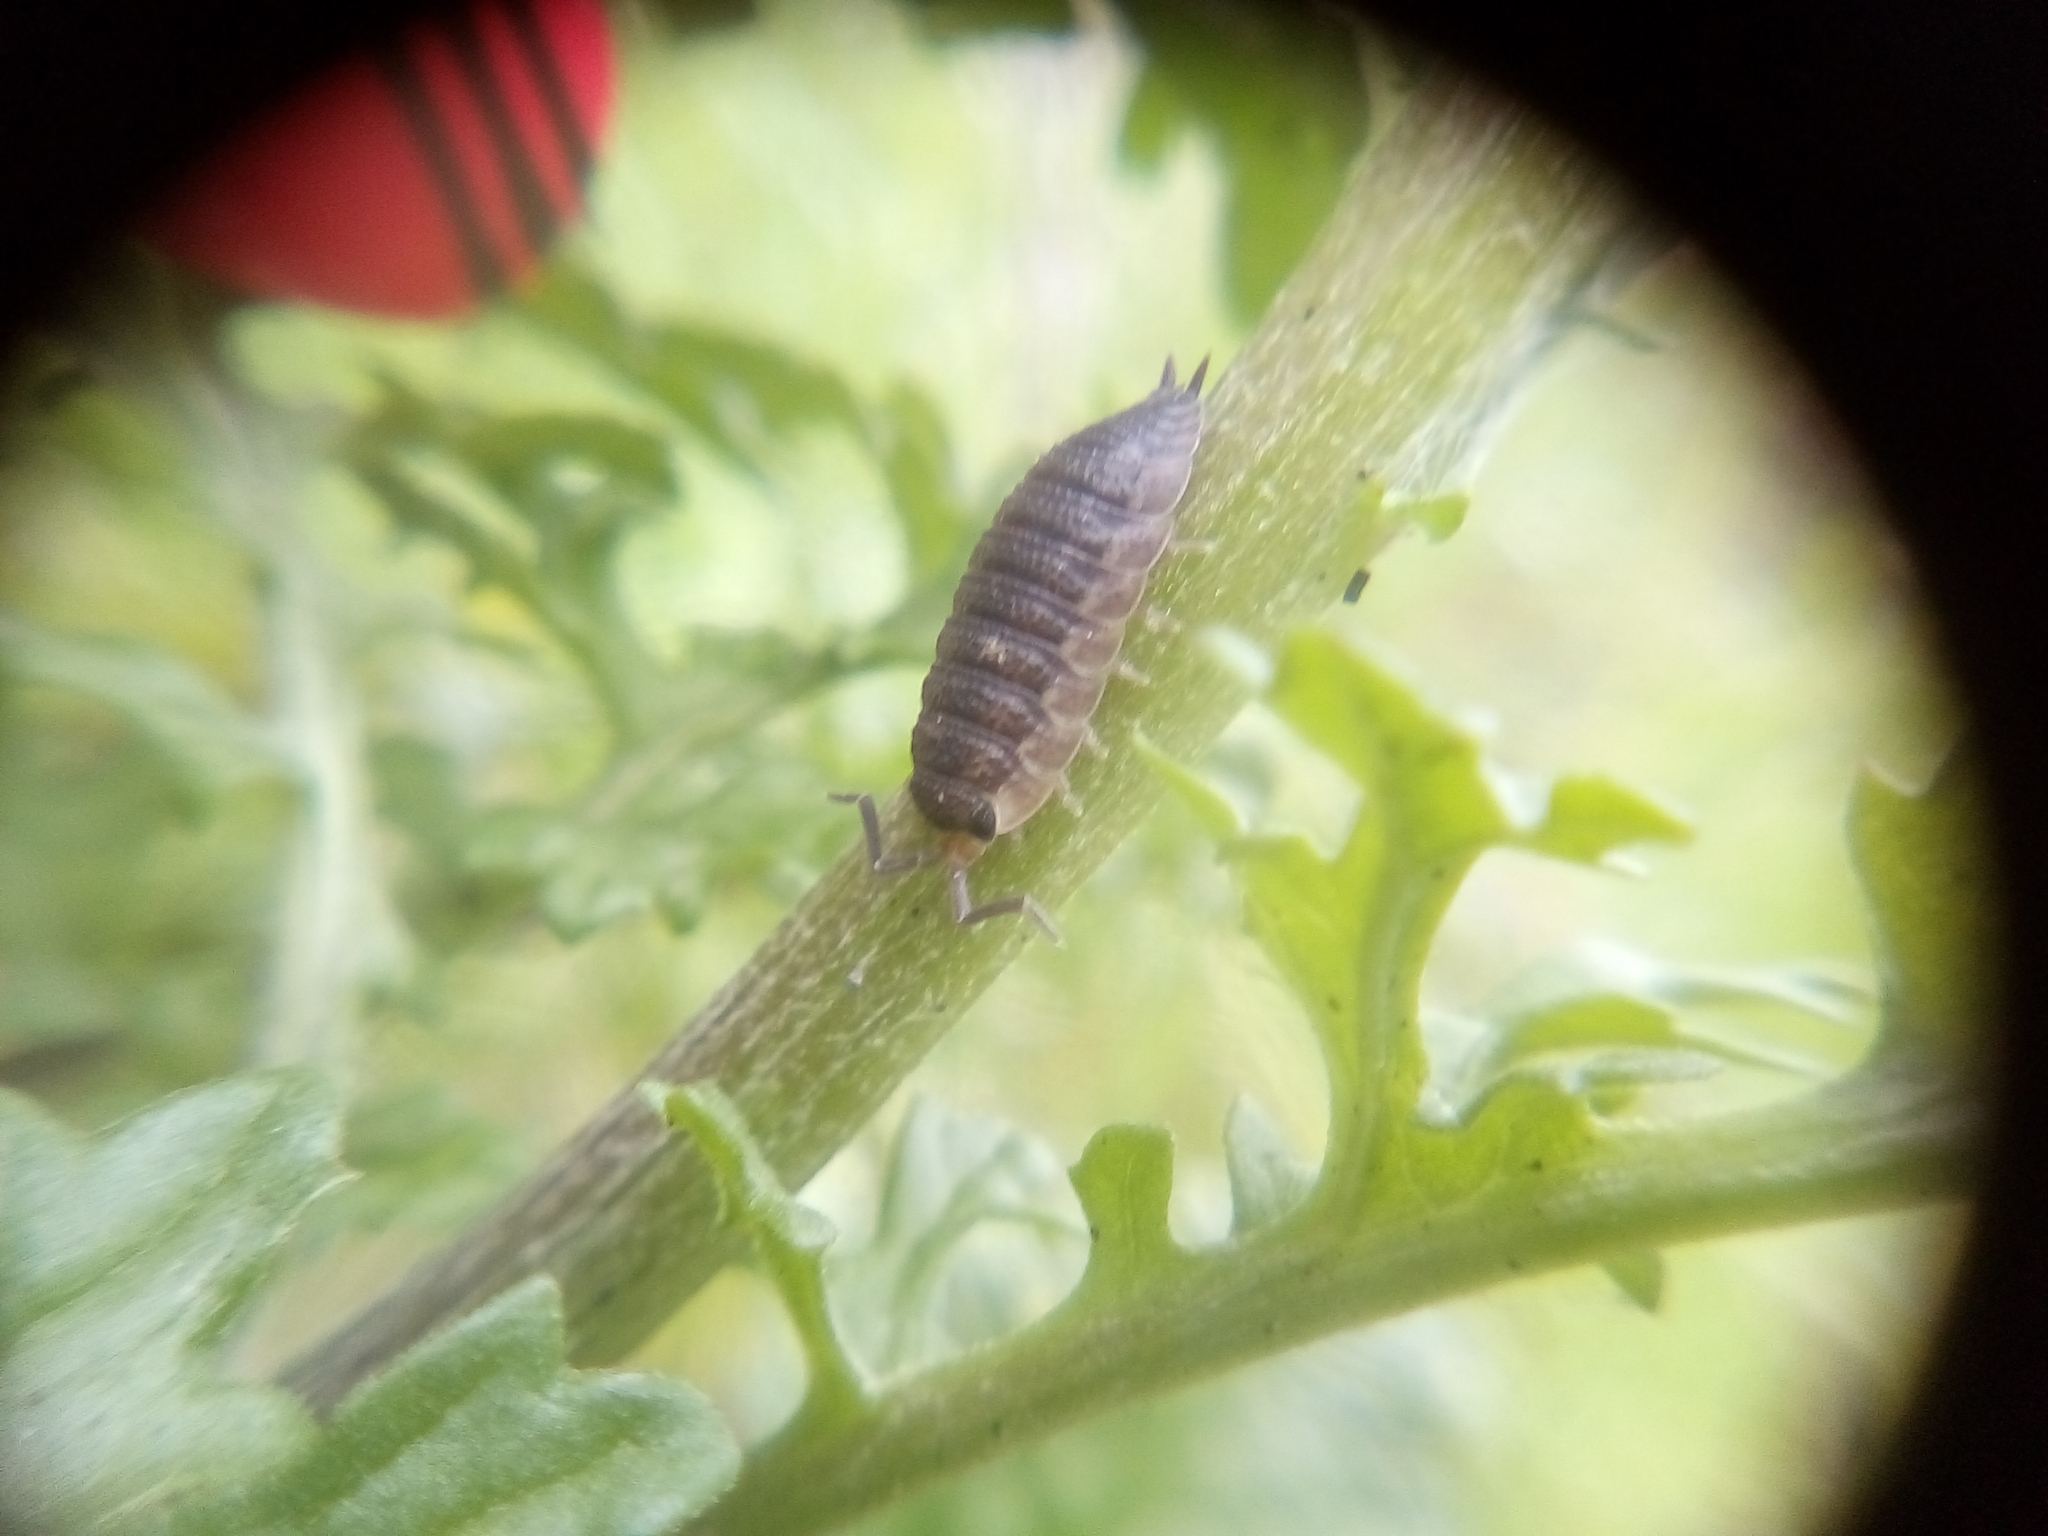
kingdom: Animalia
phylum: Arthropoda
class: Malacostraca
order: Isopoda
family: Porcellionidae
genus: Porcellio
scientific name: Porcellio scaber
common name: Common rough woodlouse
